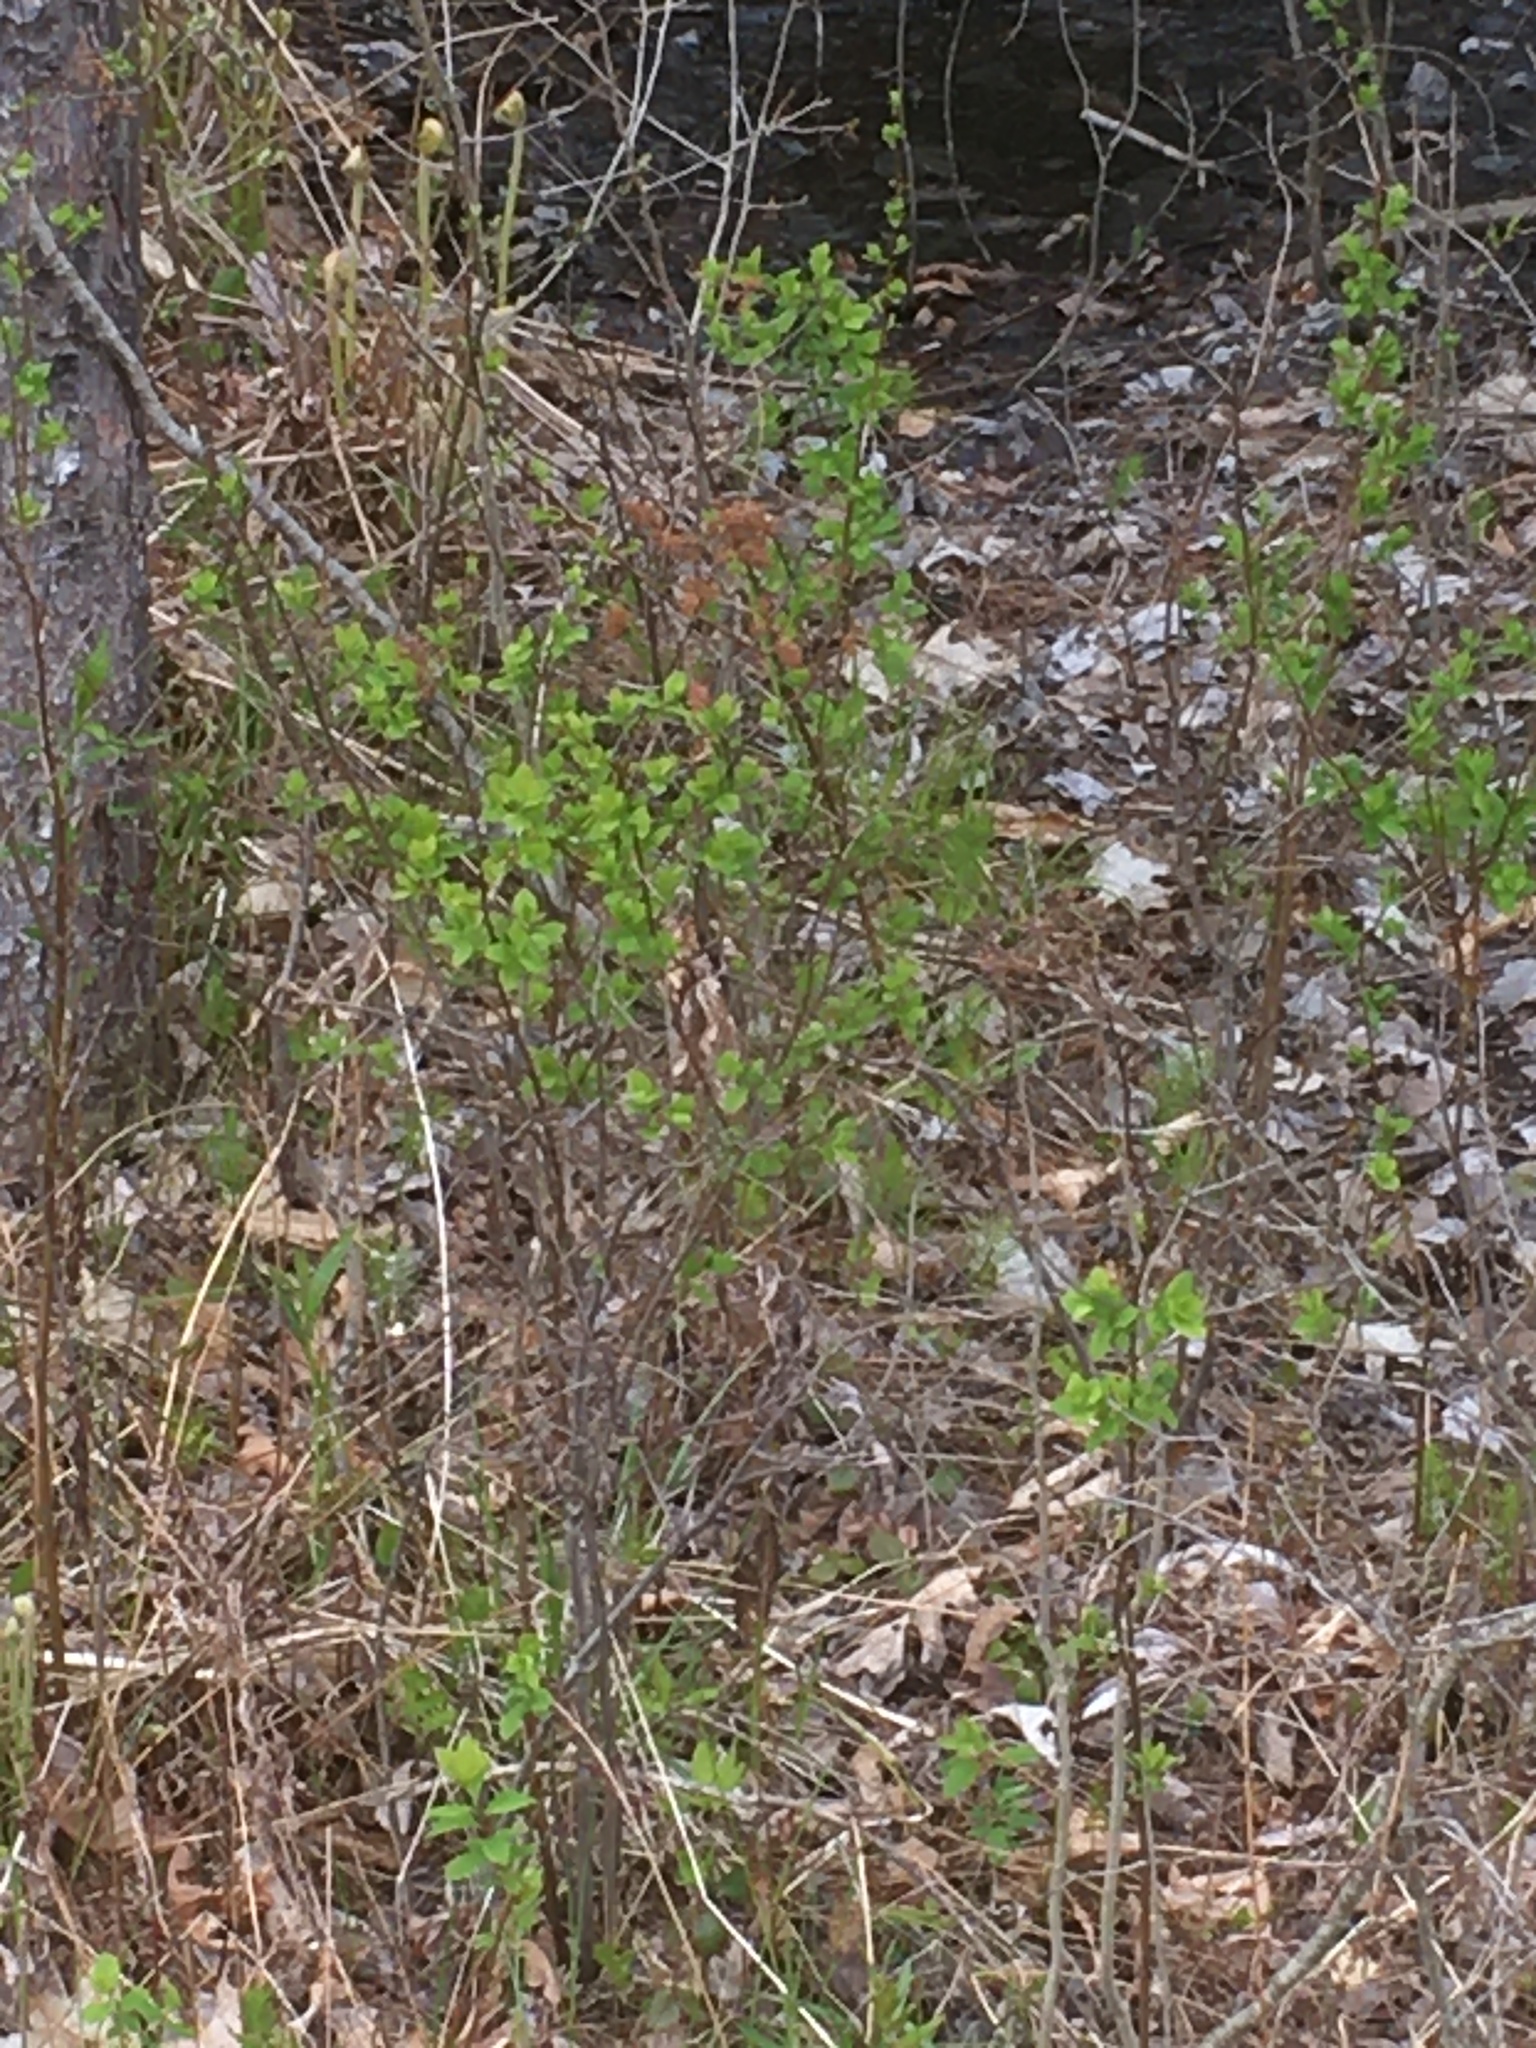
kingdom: Plantae
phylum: Tracheophyta
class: Magnoliopsida
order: Rosales
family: Rosaceae
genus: Spiraea
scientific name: Spiraea alba
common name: Pale bridewort
